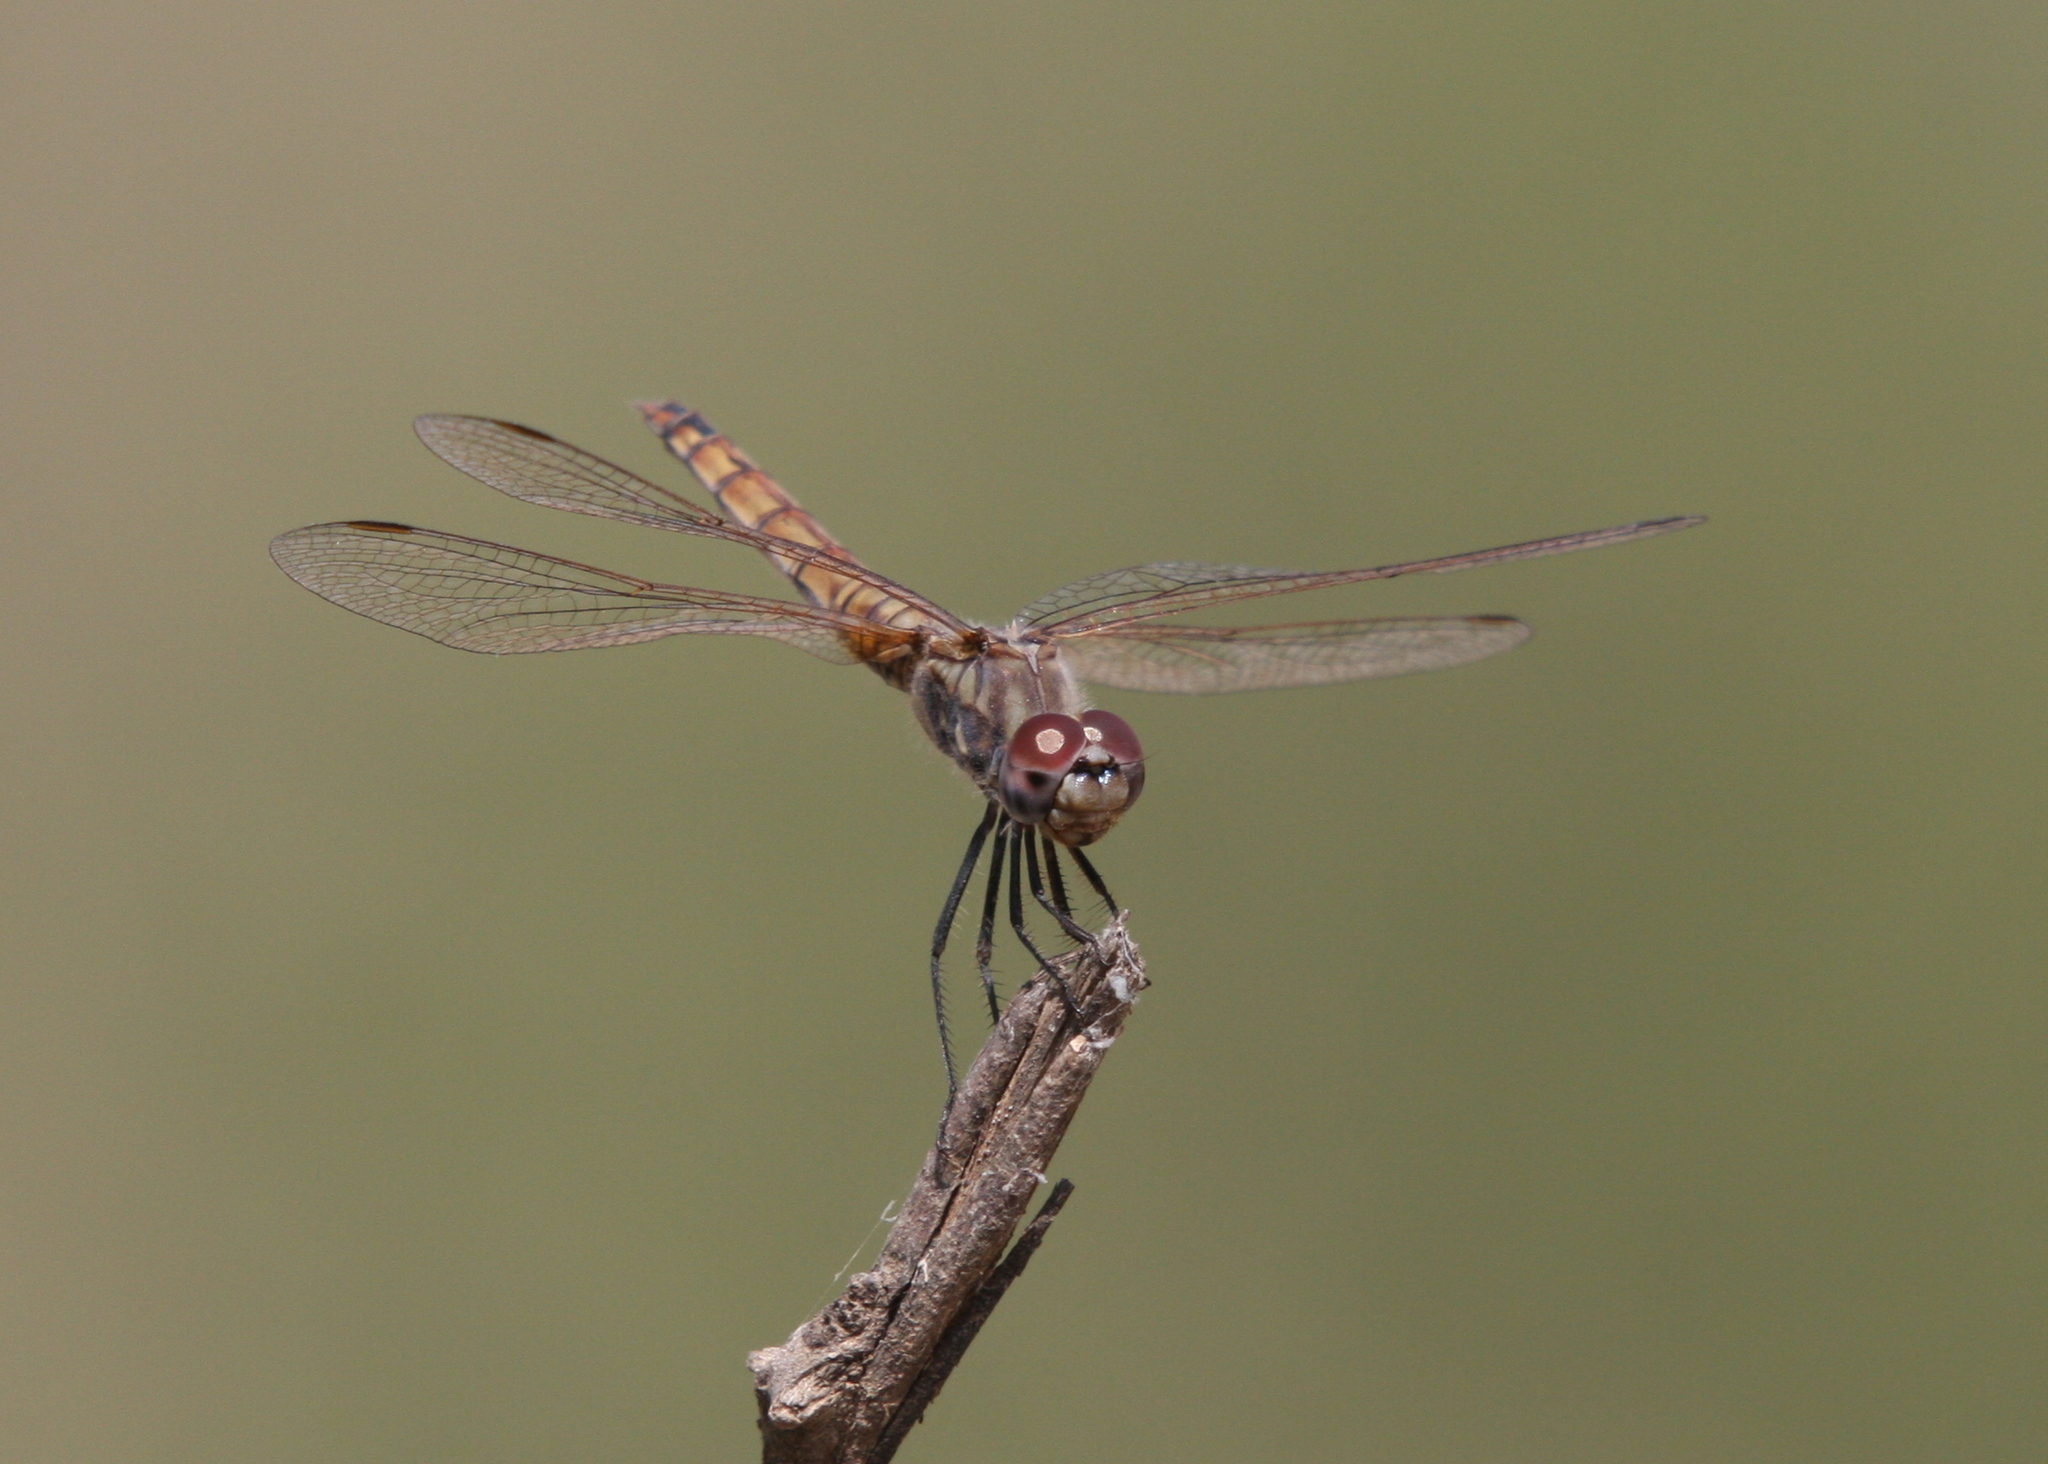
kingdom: Animalia
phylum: Arthropoda
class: Insecta
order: Odonata
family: Libellulidae
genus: Trithemis
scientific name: Trithemis annulata
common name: Violet dropwing
